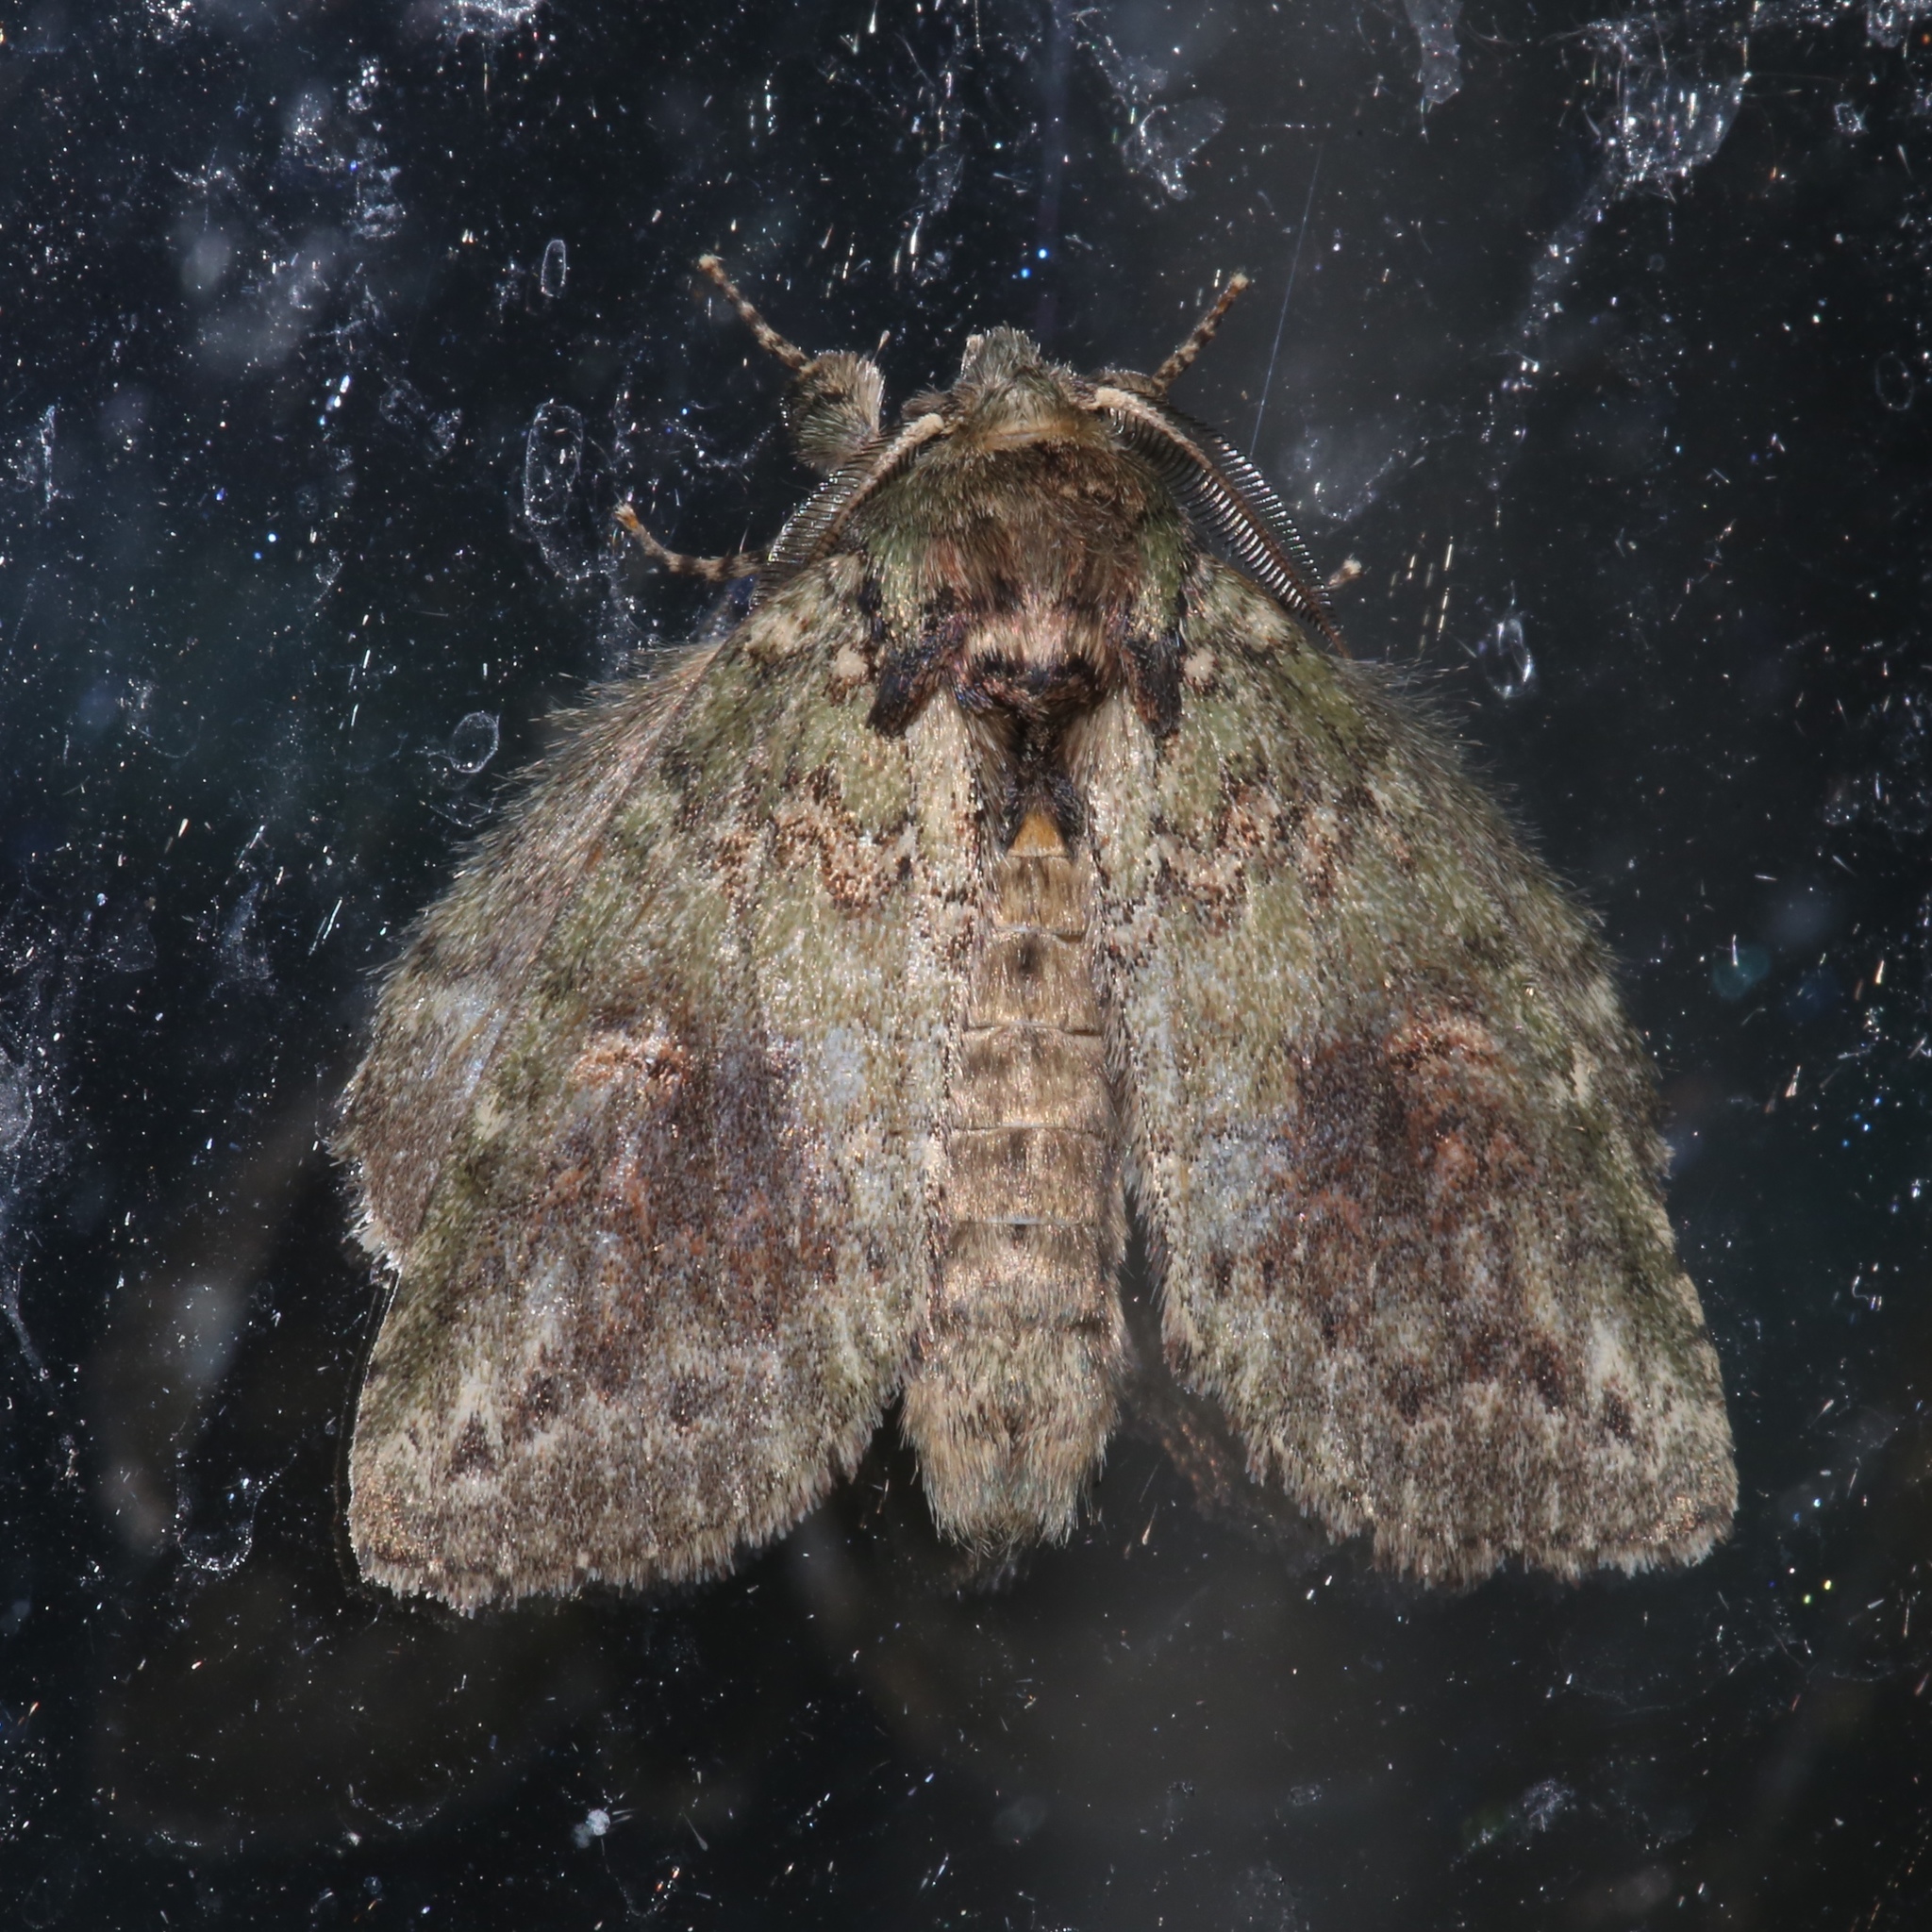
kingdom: Animalia
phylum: Arthropoda
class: Insecta
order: Lepidoptera
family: Notodontidae
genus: Disphragis
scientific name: Disphragis Cecrita biundata
